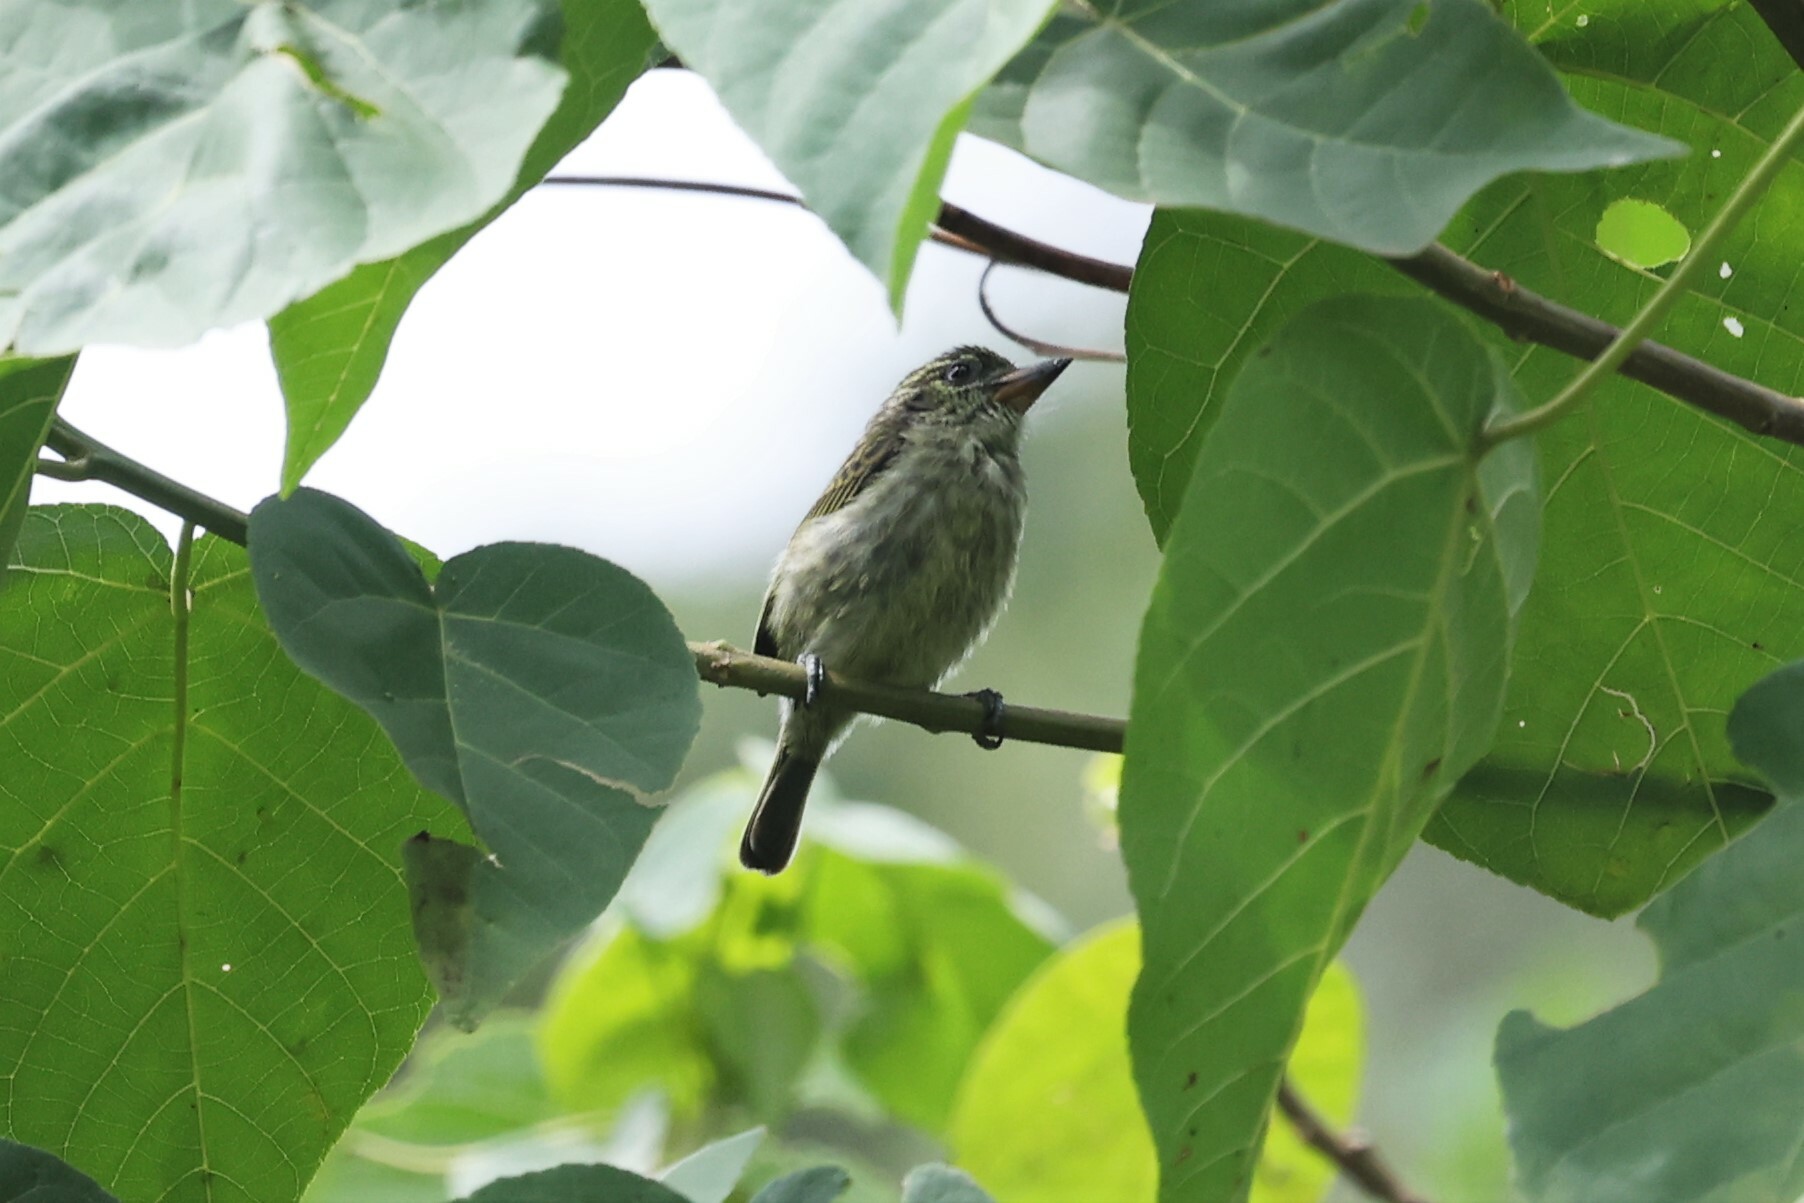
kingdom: Animalia
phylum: Chordata
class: Aves
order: Piciformes
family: Lybiidae
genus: Pogoniulus
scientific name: Pogoniulus scolopaceus
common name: Speckled tinkerbird
